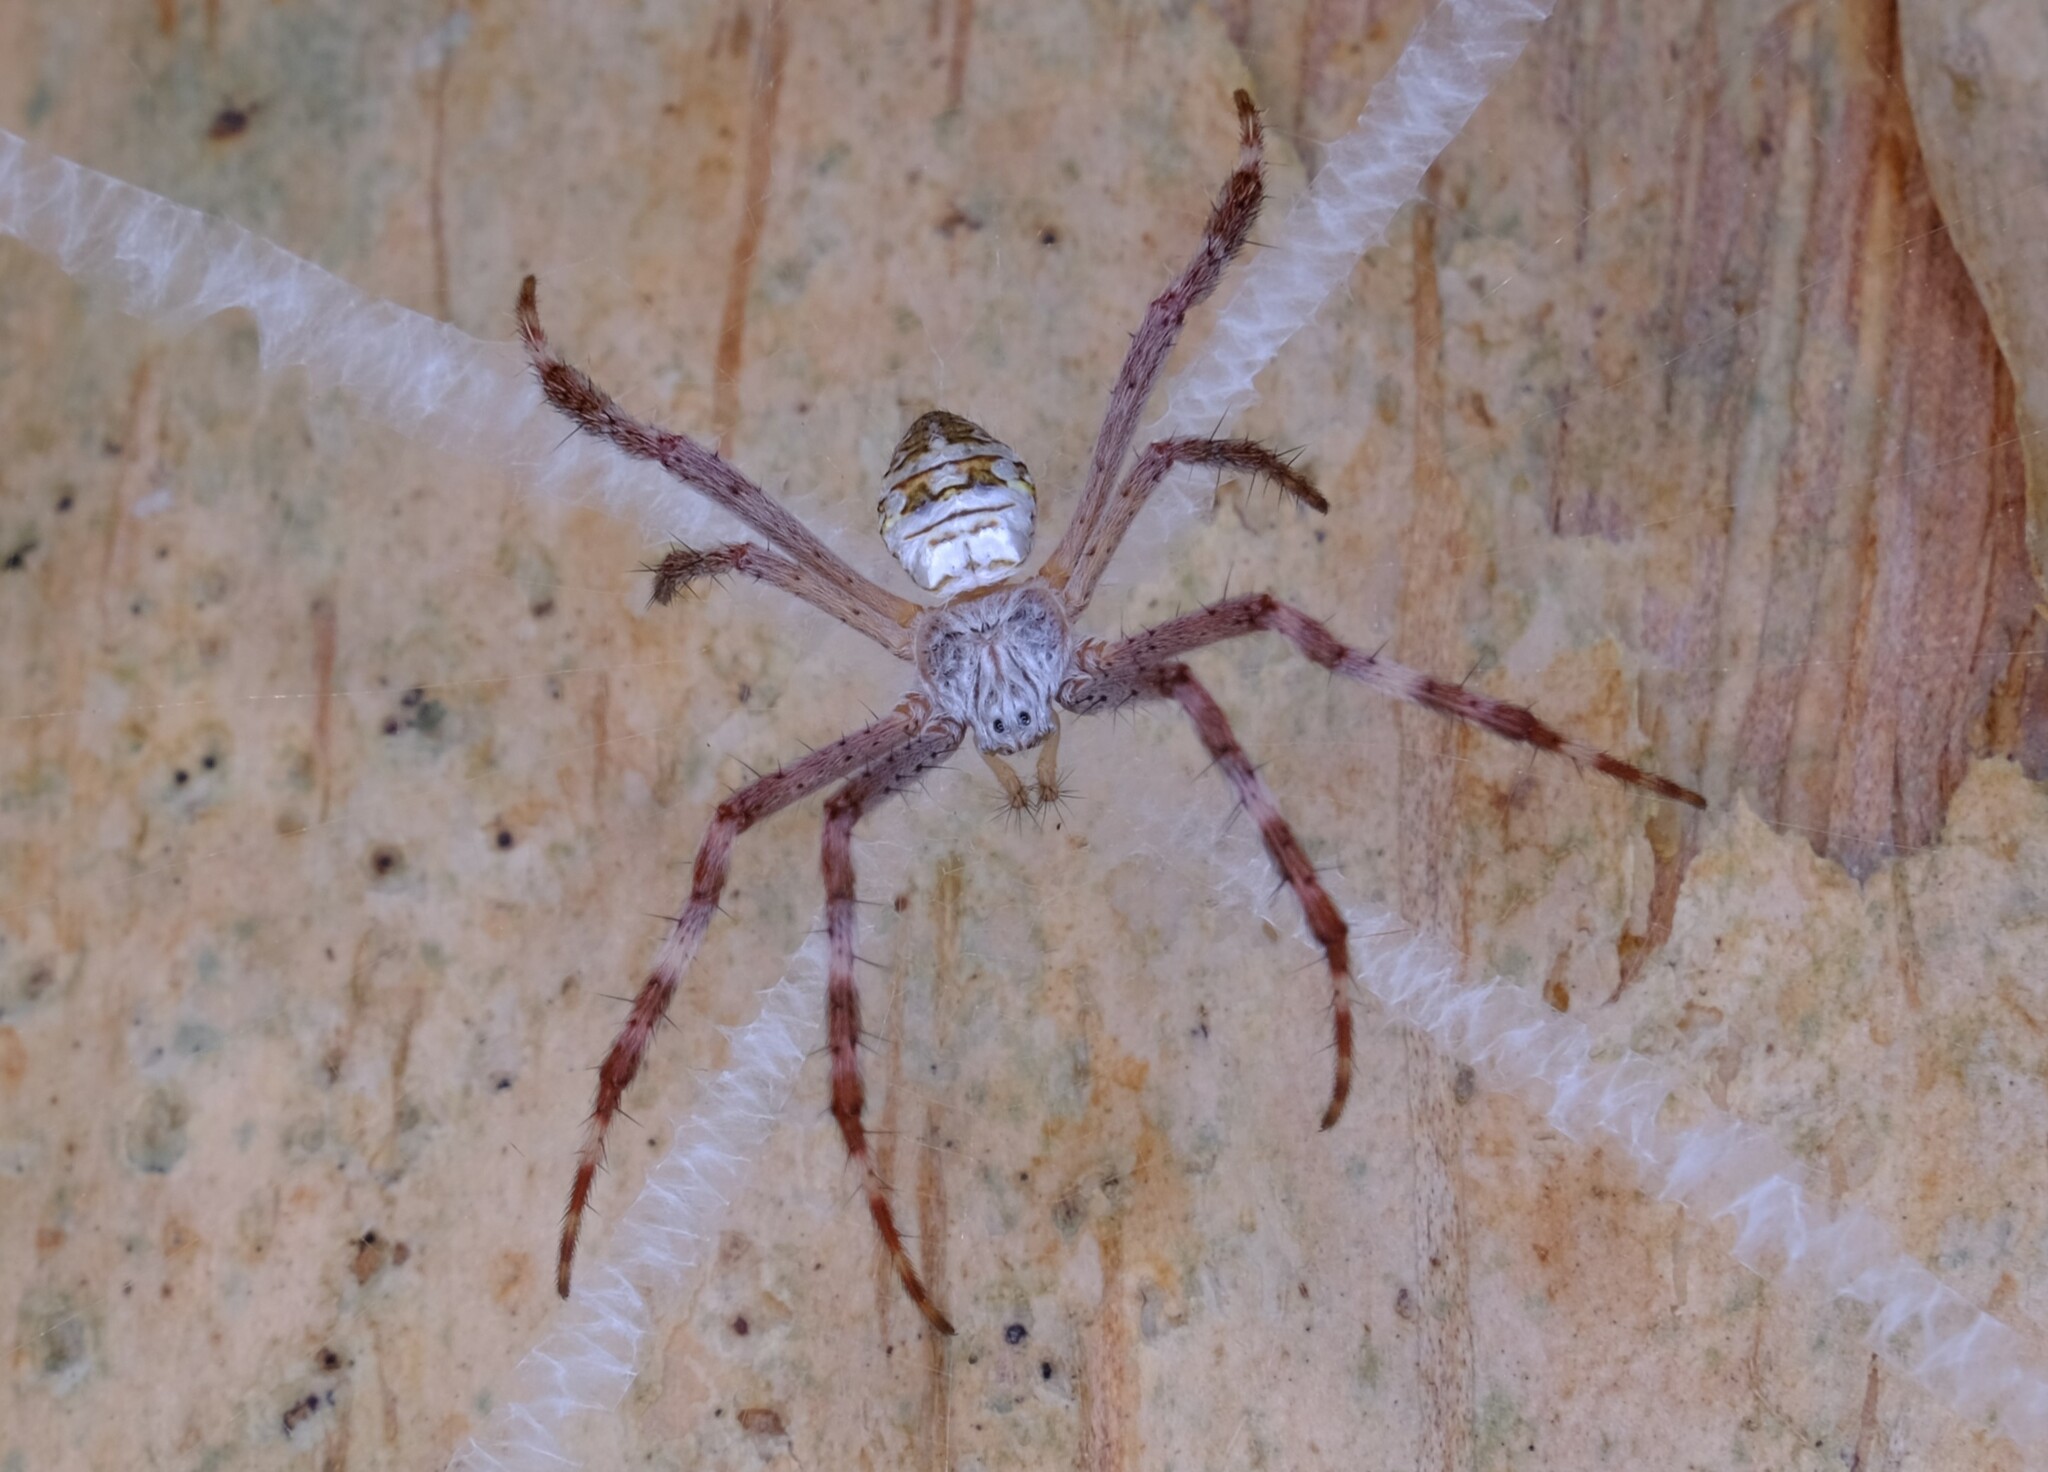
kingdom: Animalia
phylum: Arthropoda
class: Arachnida
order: Araneae
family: Araneidae
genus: Argiope
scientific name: Argiope keyserlingi
